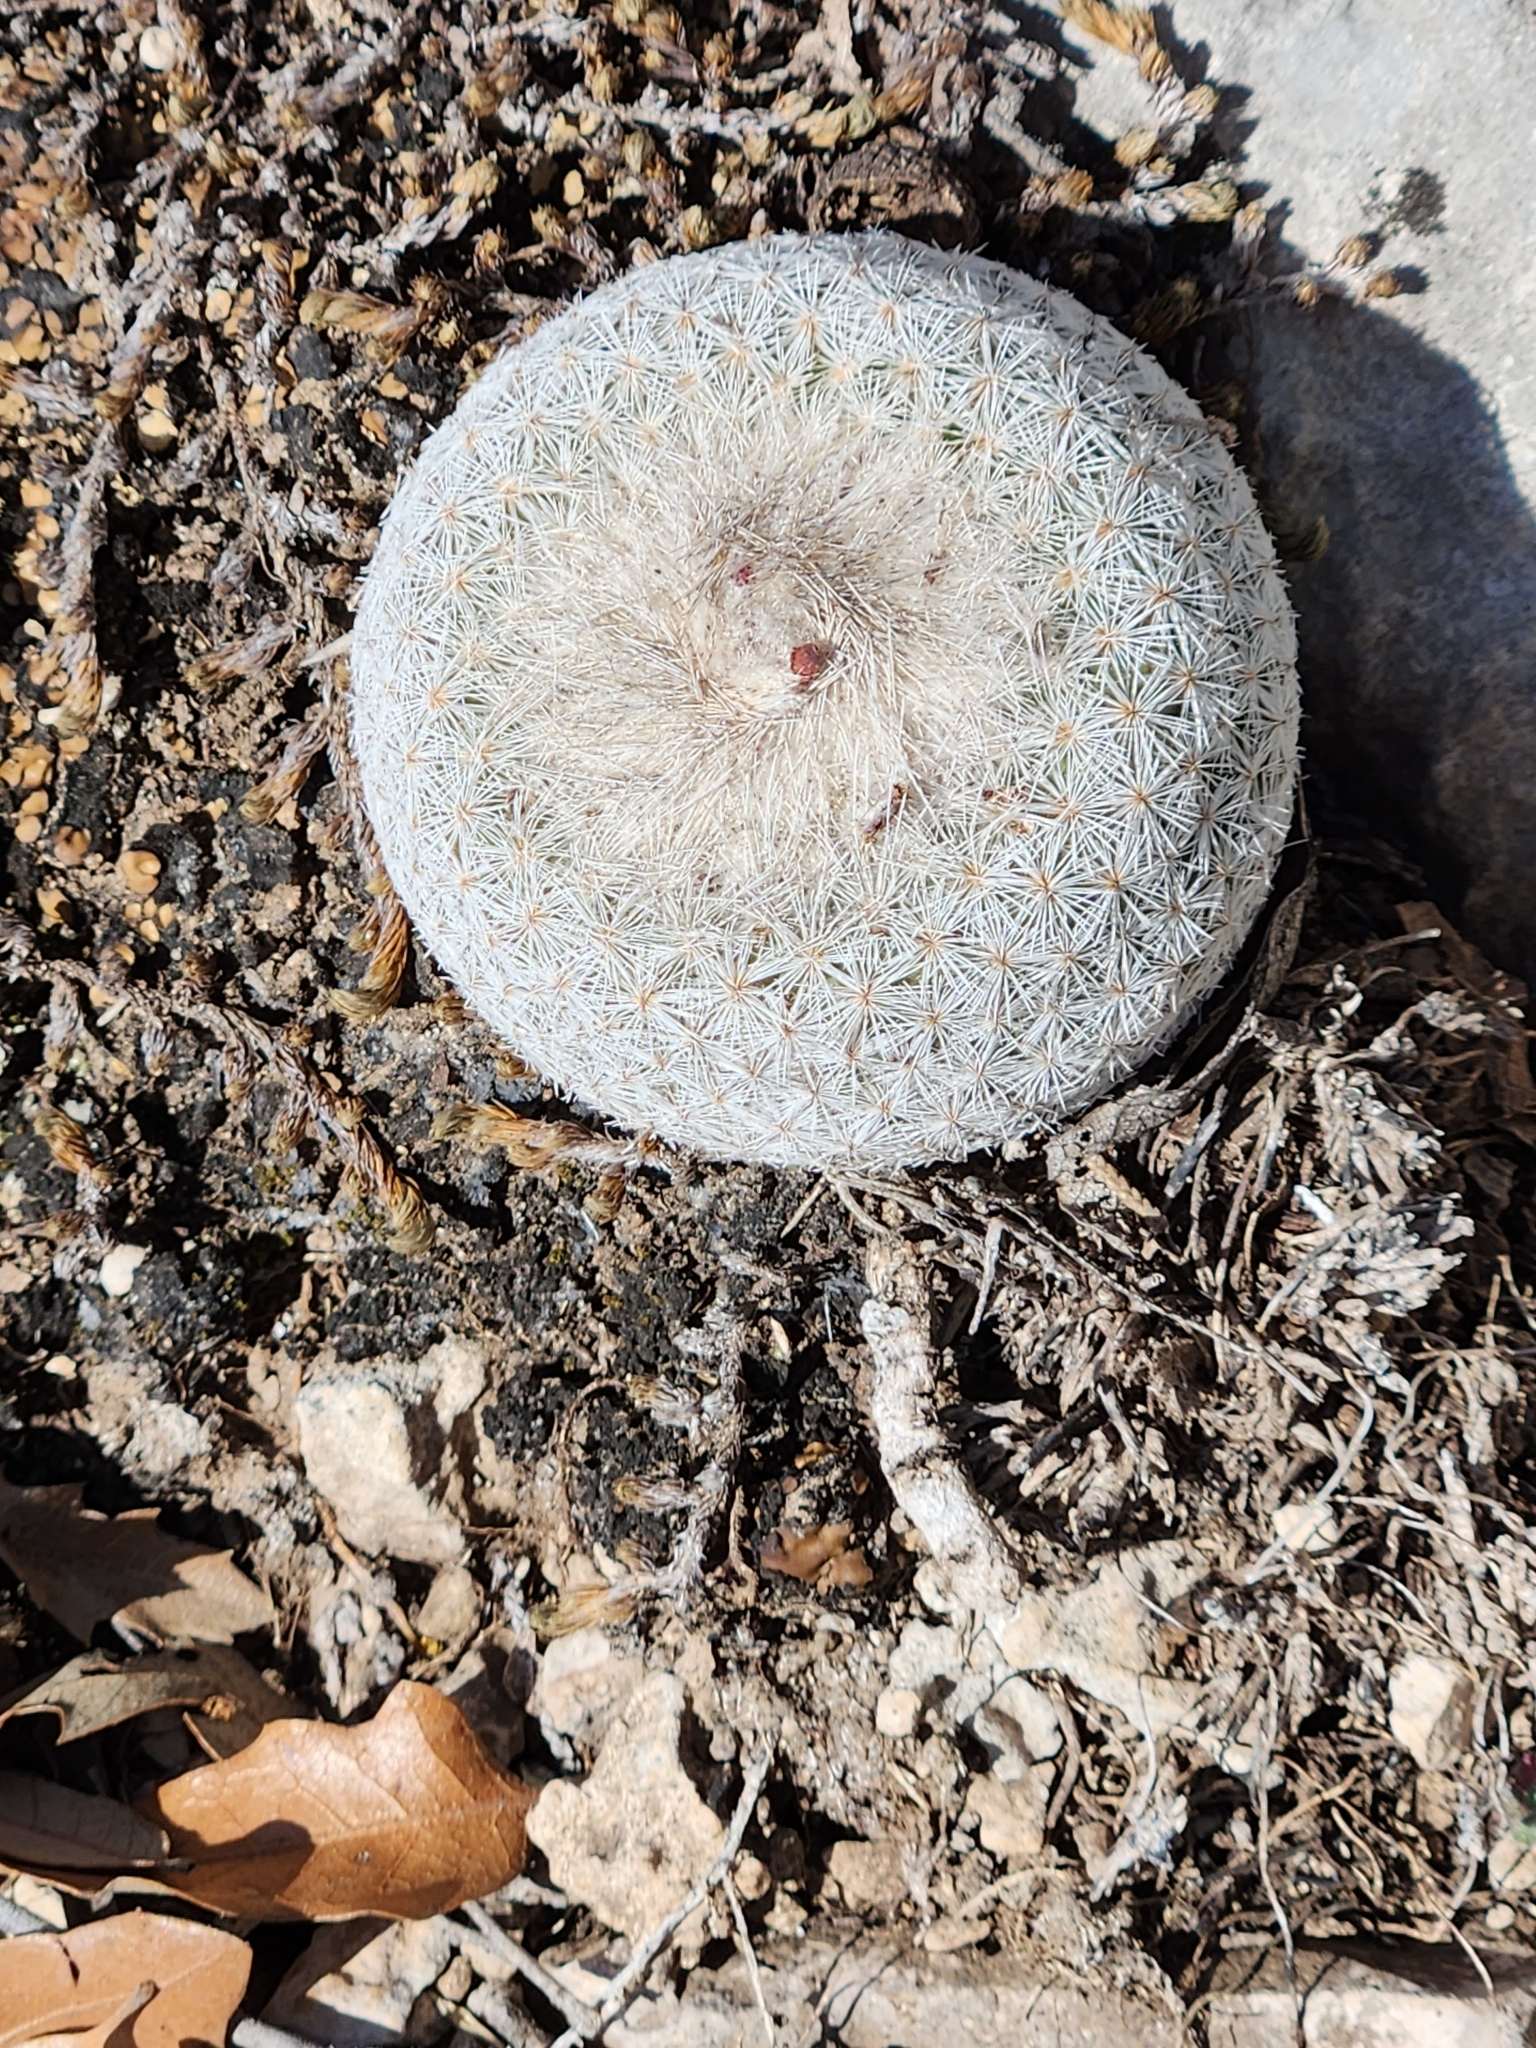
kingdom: Plantae
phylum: Tracheophyta
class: Magnoliopsida
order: Caryophyllales
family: Cactaceae
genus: Epithelantha
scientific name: Epithelantha micromeris
